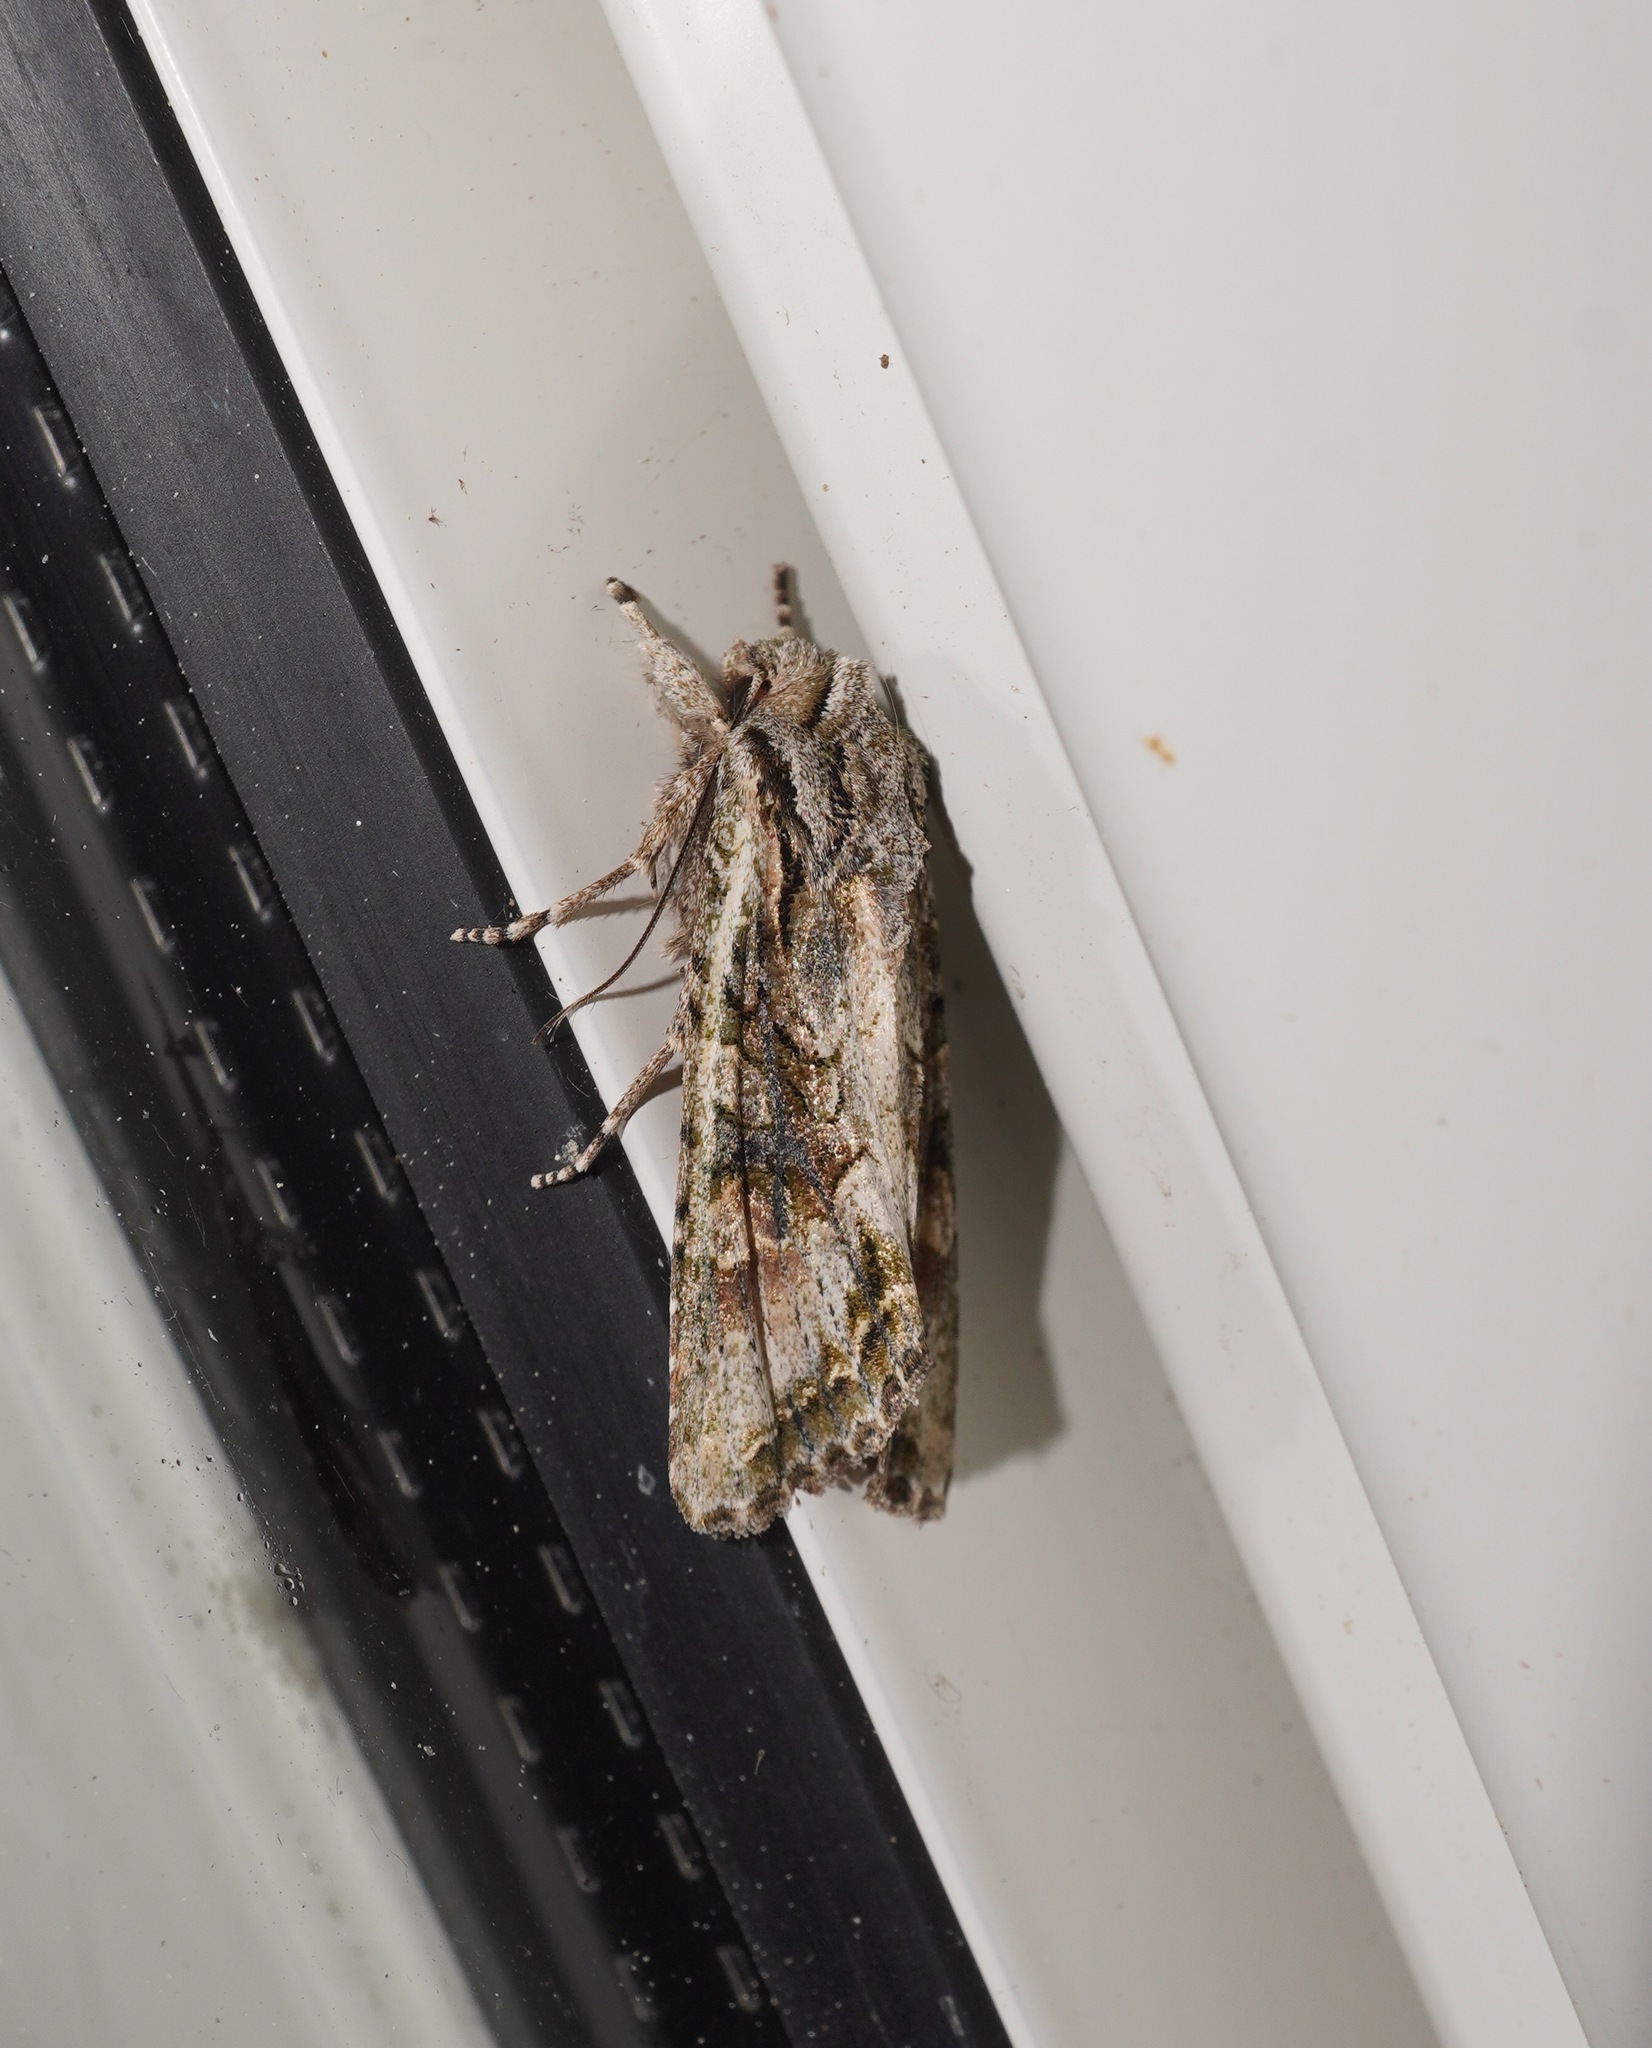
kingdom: Animalia
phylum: Arthropoda
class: Insecta
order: Lepidoptera
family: Noctuidae
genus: Ichneutica
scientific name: Ichneutica mutans
